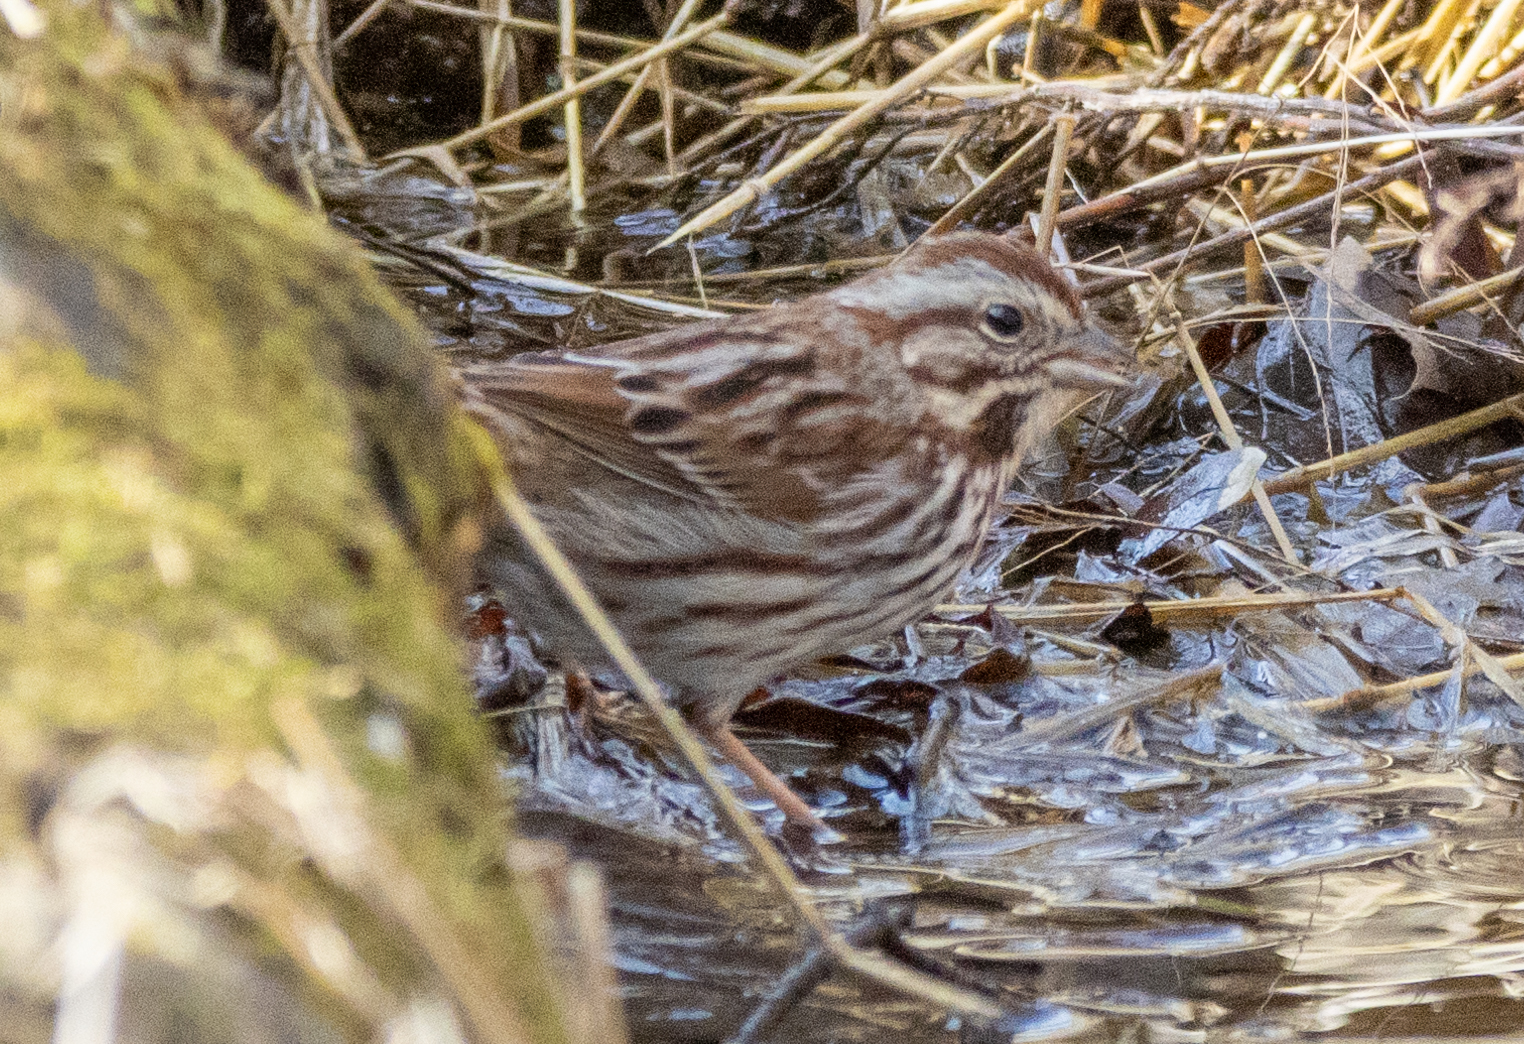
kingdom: Animalia
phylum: Chordata
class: Aves
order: Passeriformes
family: Passerellidae
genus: Melospiza
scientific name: Melospiza melodia
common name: Song sparrow
